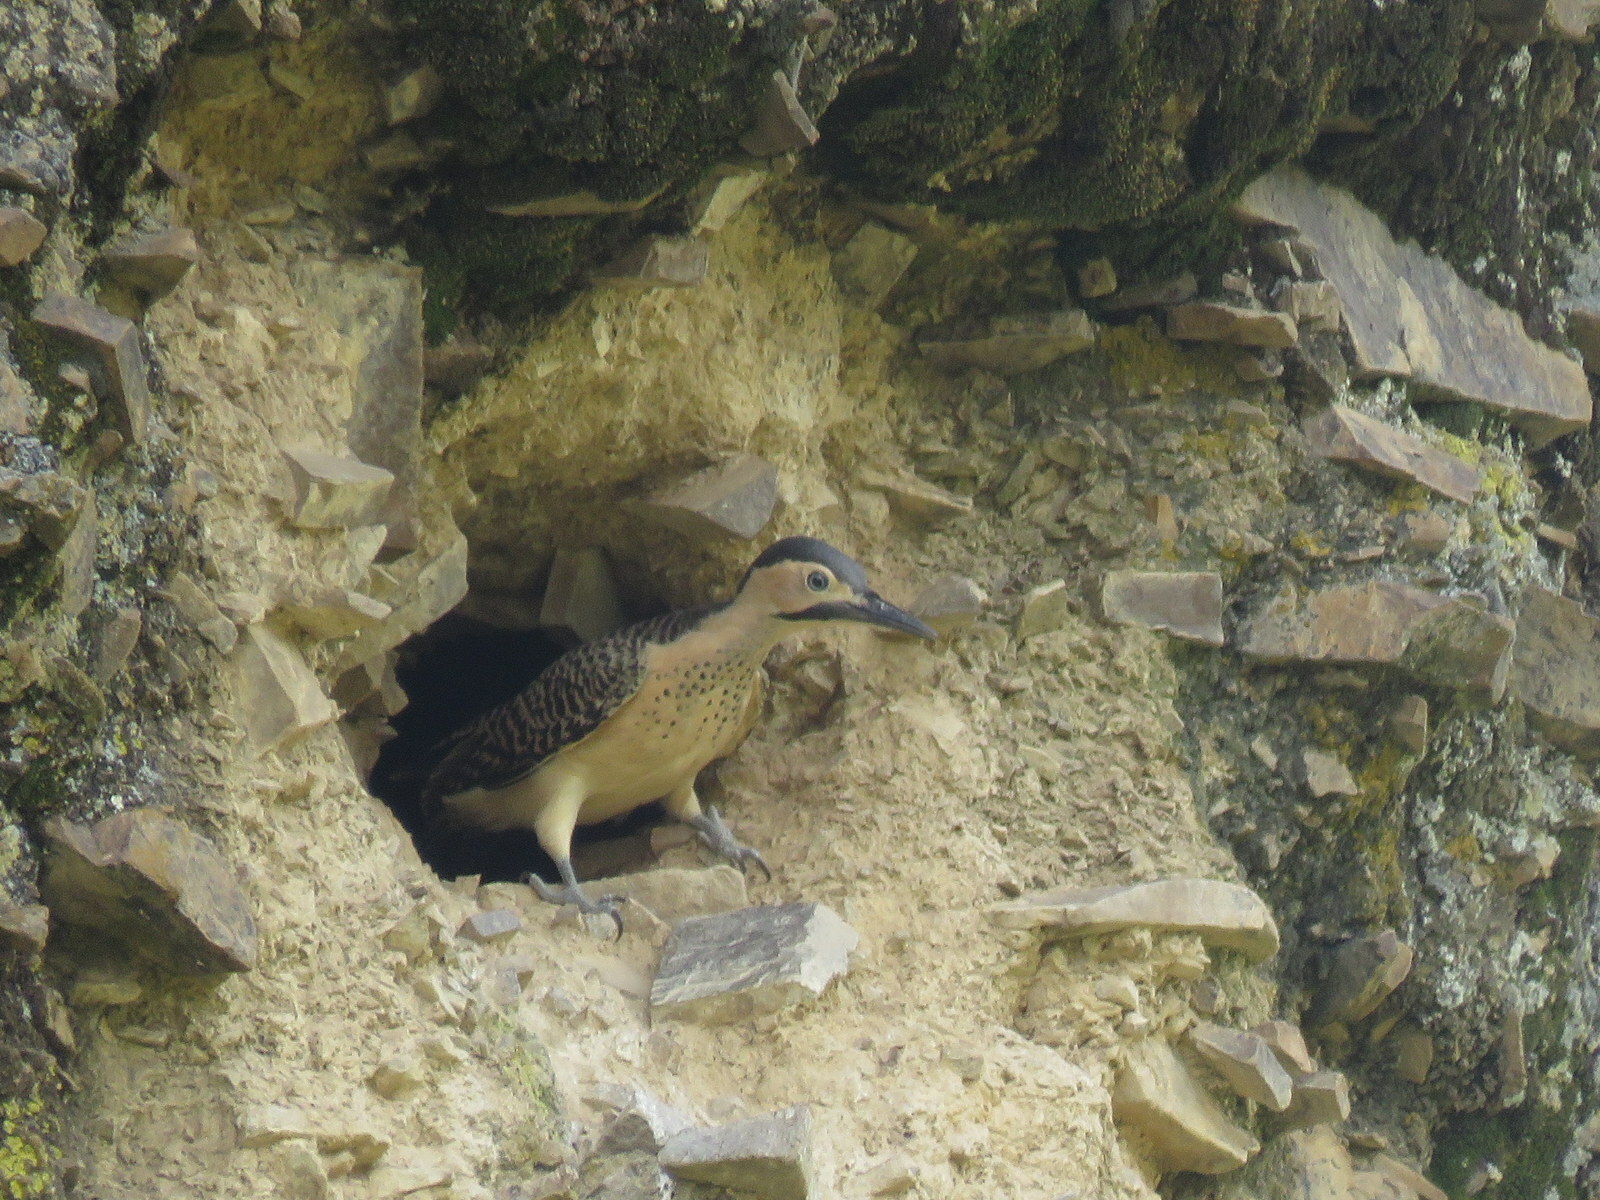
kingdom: Animalia
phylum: Chordata
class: Aves
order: Piciformes
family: Picidae
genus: Colaptes
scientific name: Colaptes rupicola
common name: Andean flicker
